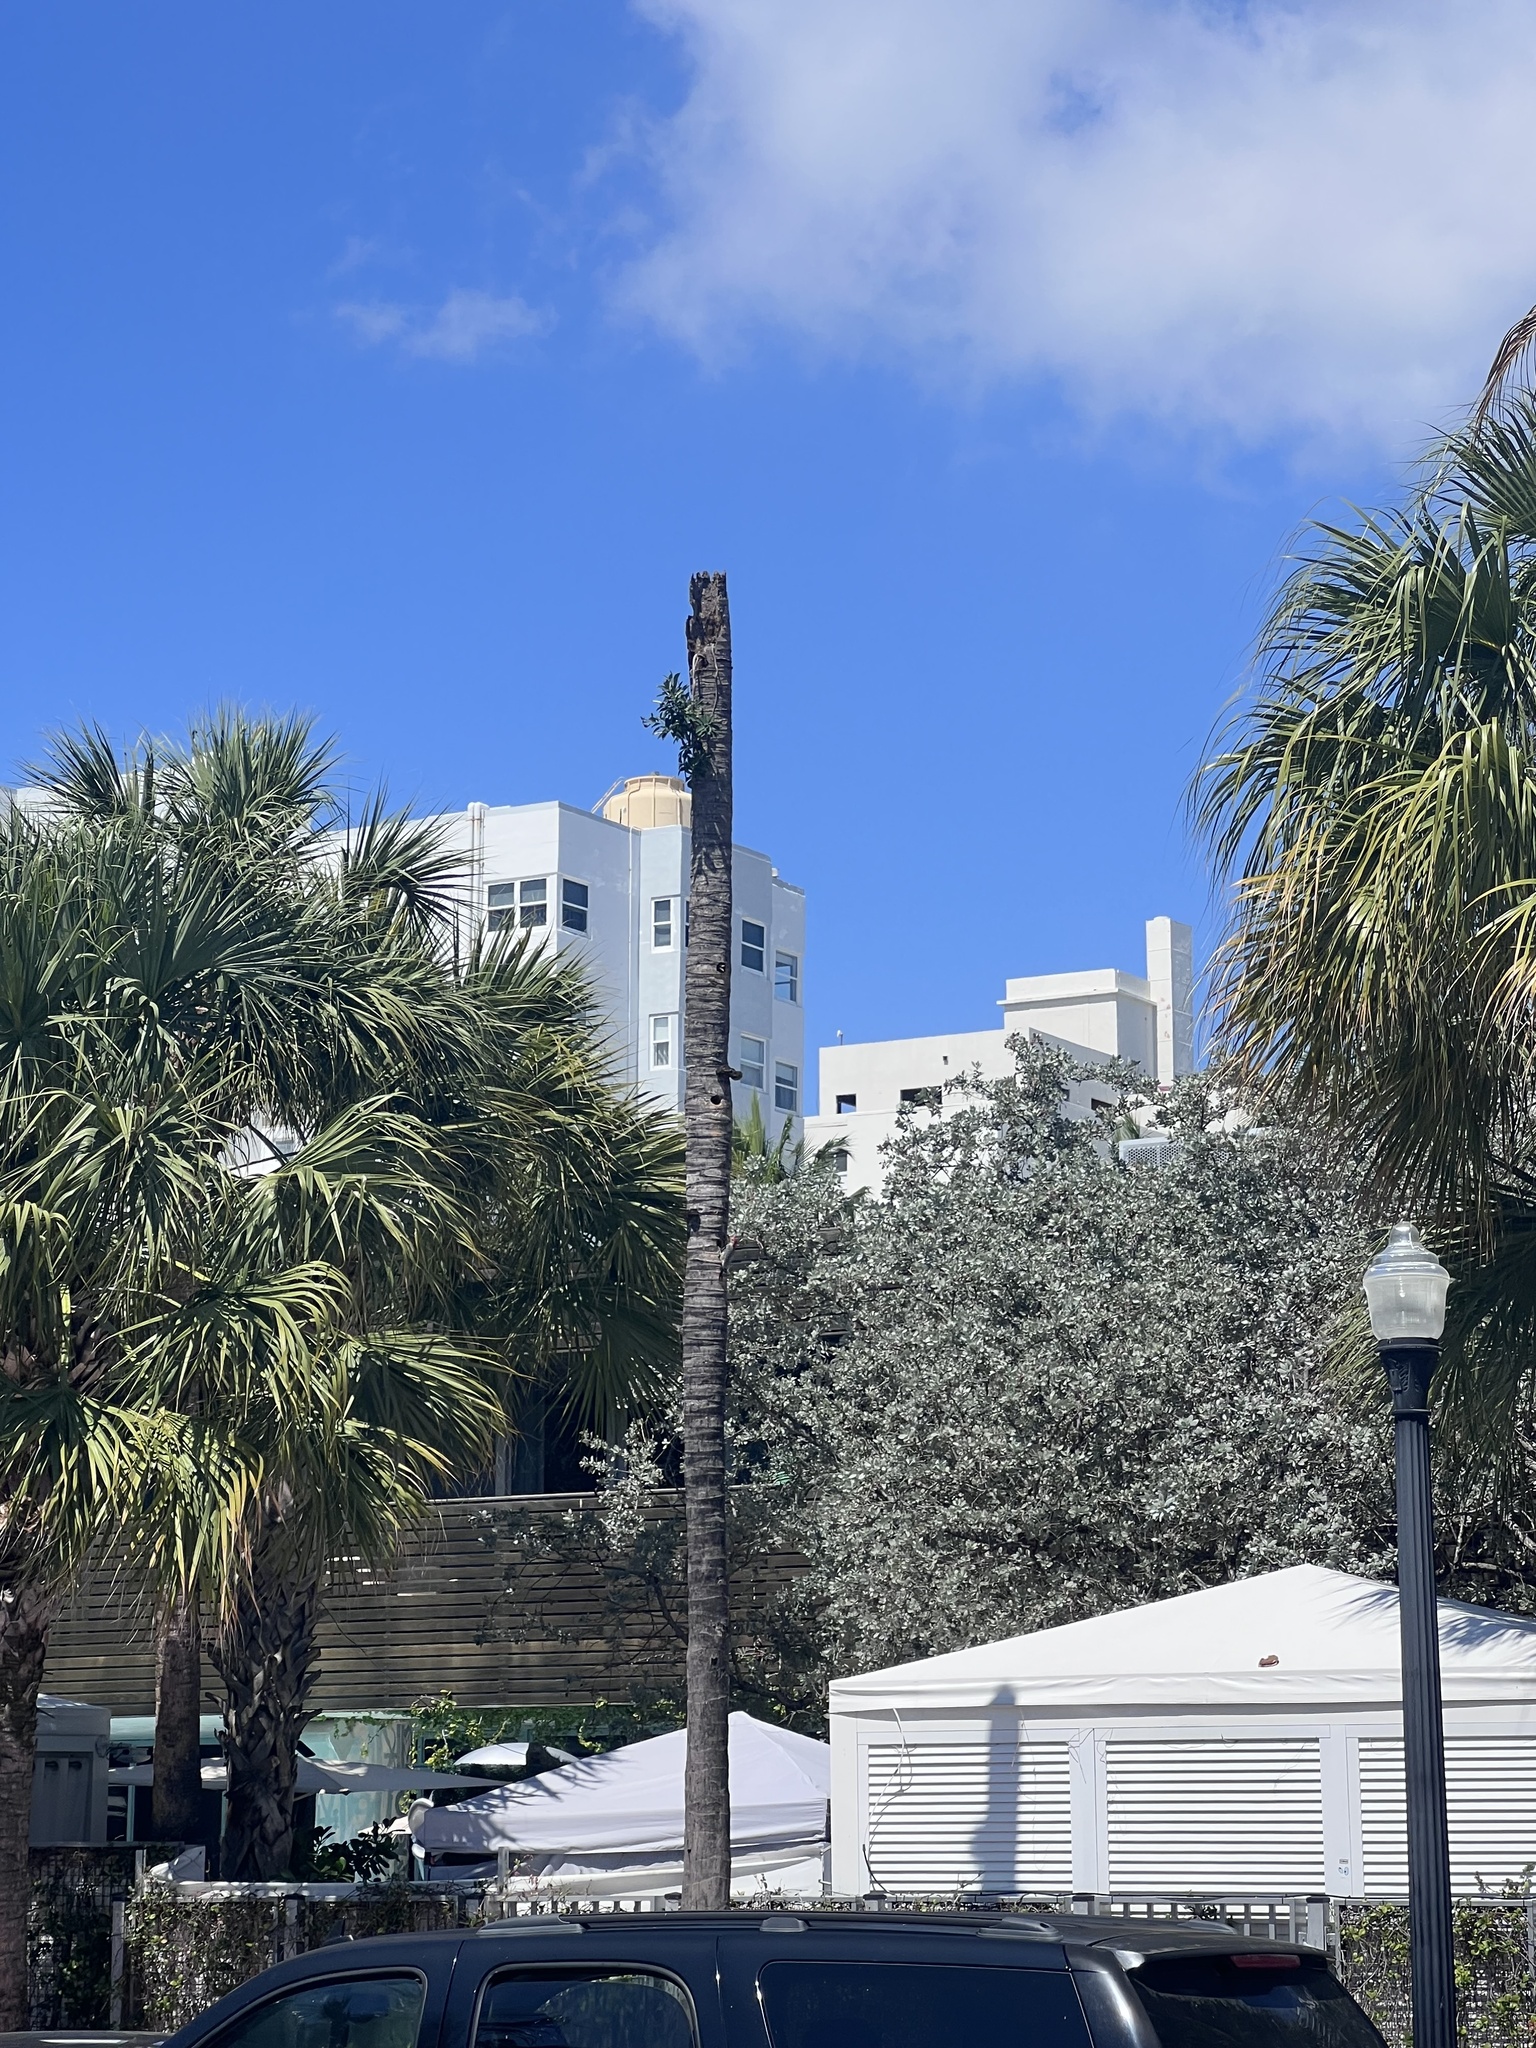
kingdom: Animalia
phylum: Chordata
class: Aves
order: Piciformes
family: Picidae
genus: Melanerpes
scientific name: Melanerpes carolinus
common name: Red-bellied woodpecker
